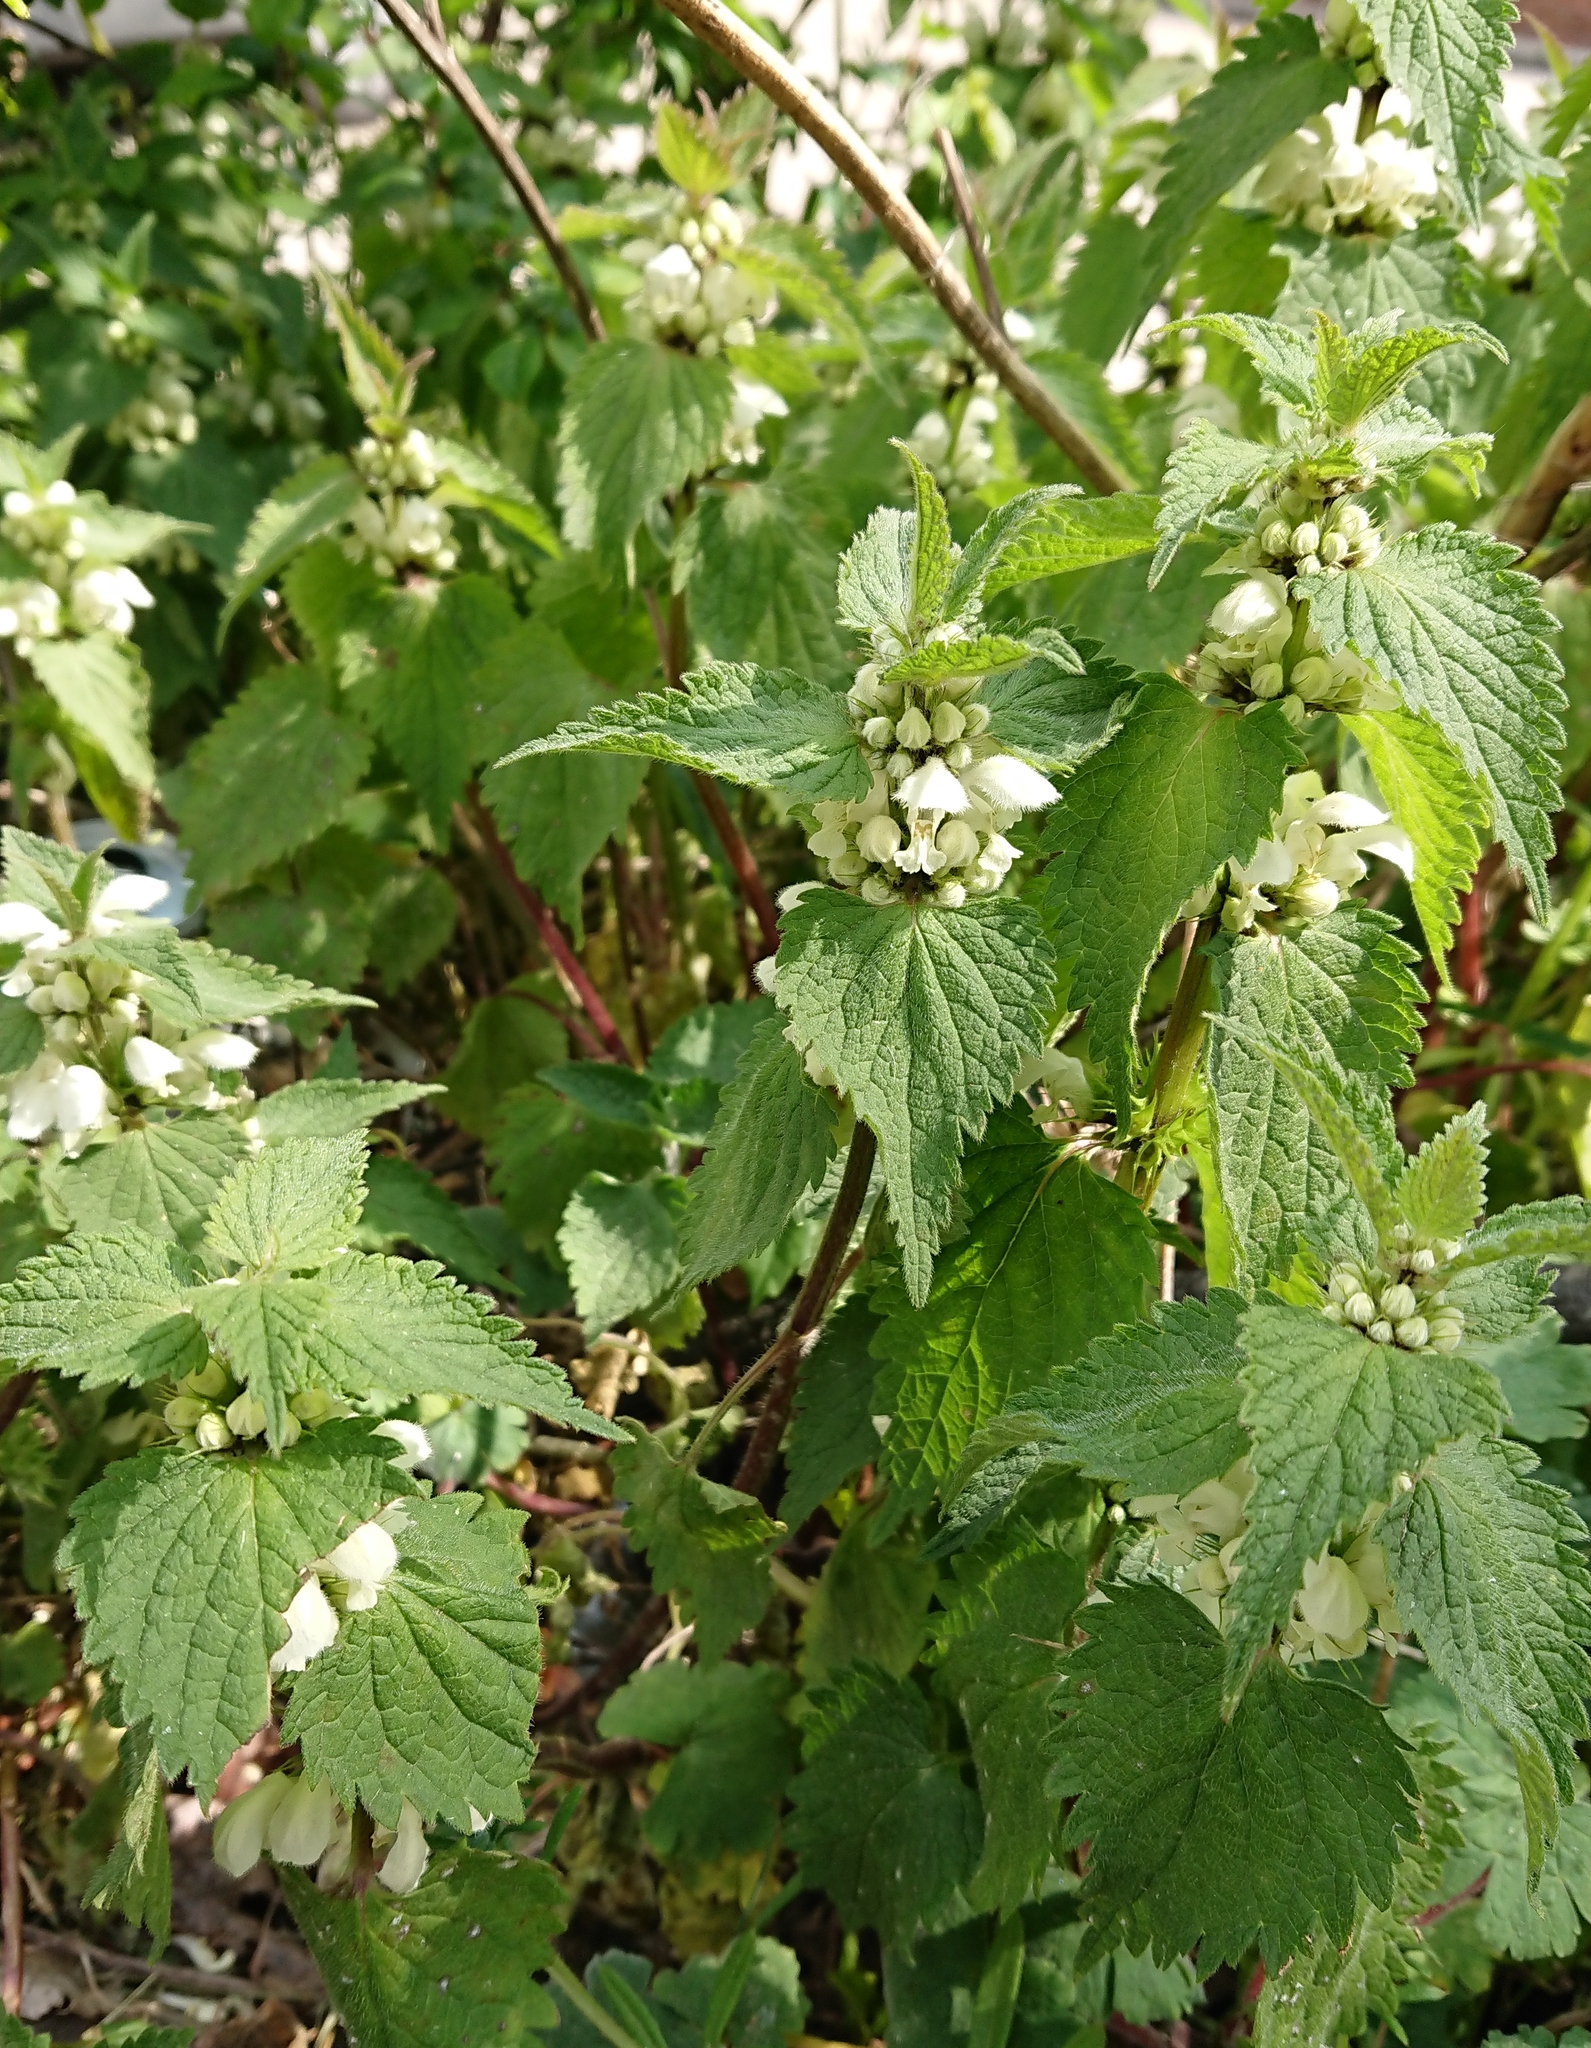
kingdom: Plantae
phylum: Tracheophyta
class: Magnoliopsida
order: Lamiales
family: Lamiaceae
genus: Lamium
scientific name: Lamium album
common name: White dead-nettle
